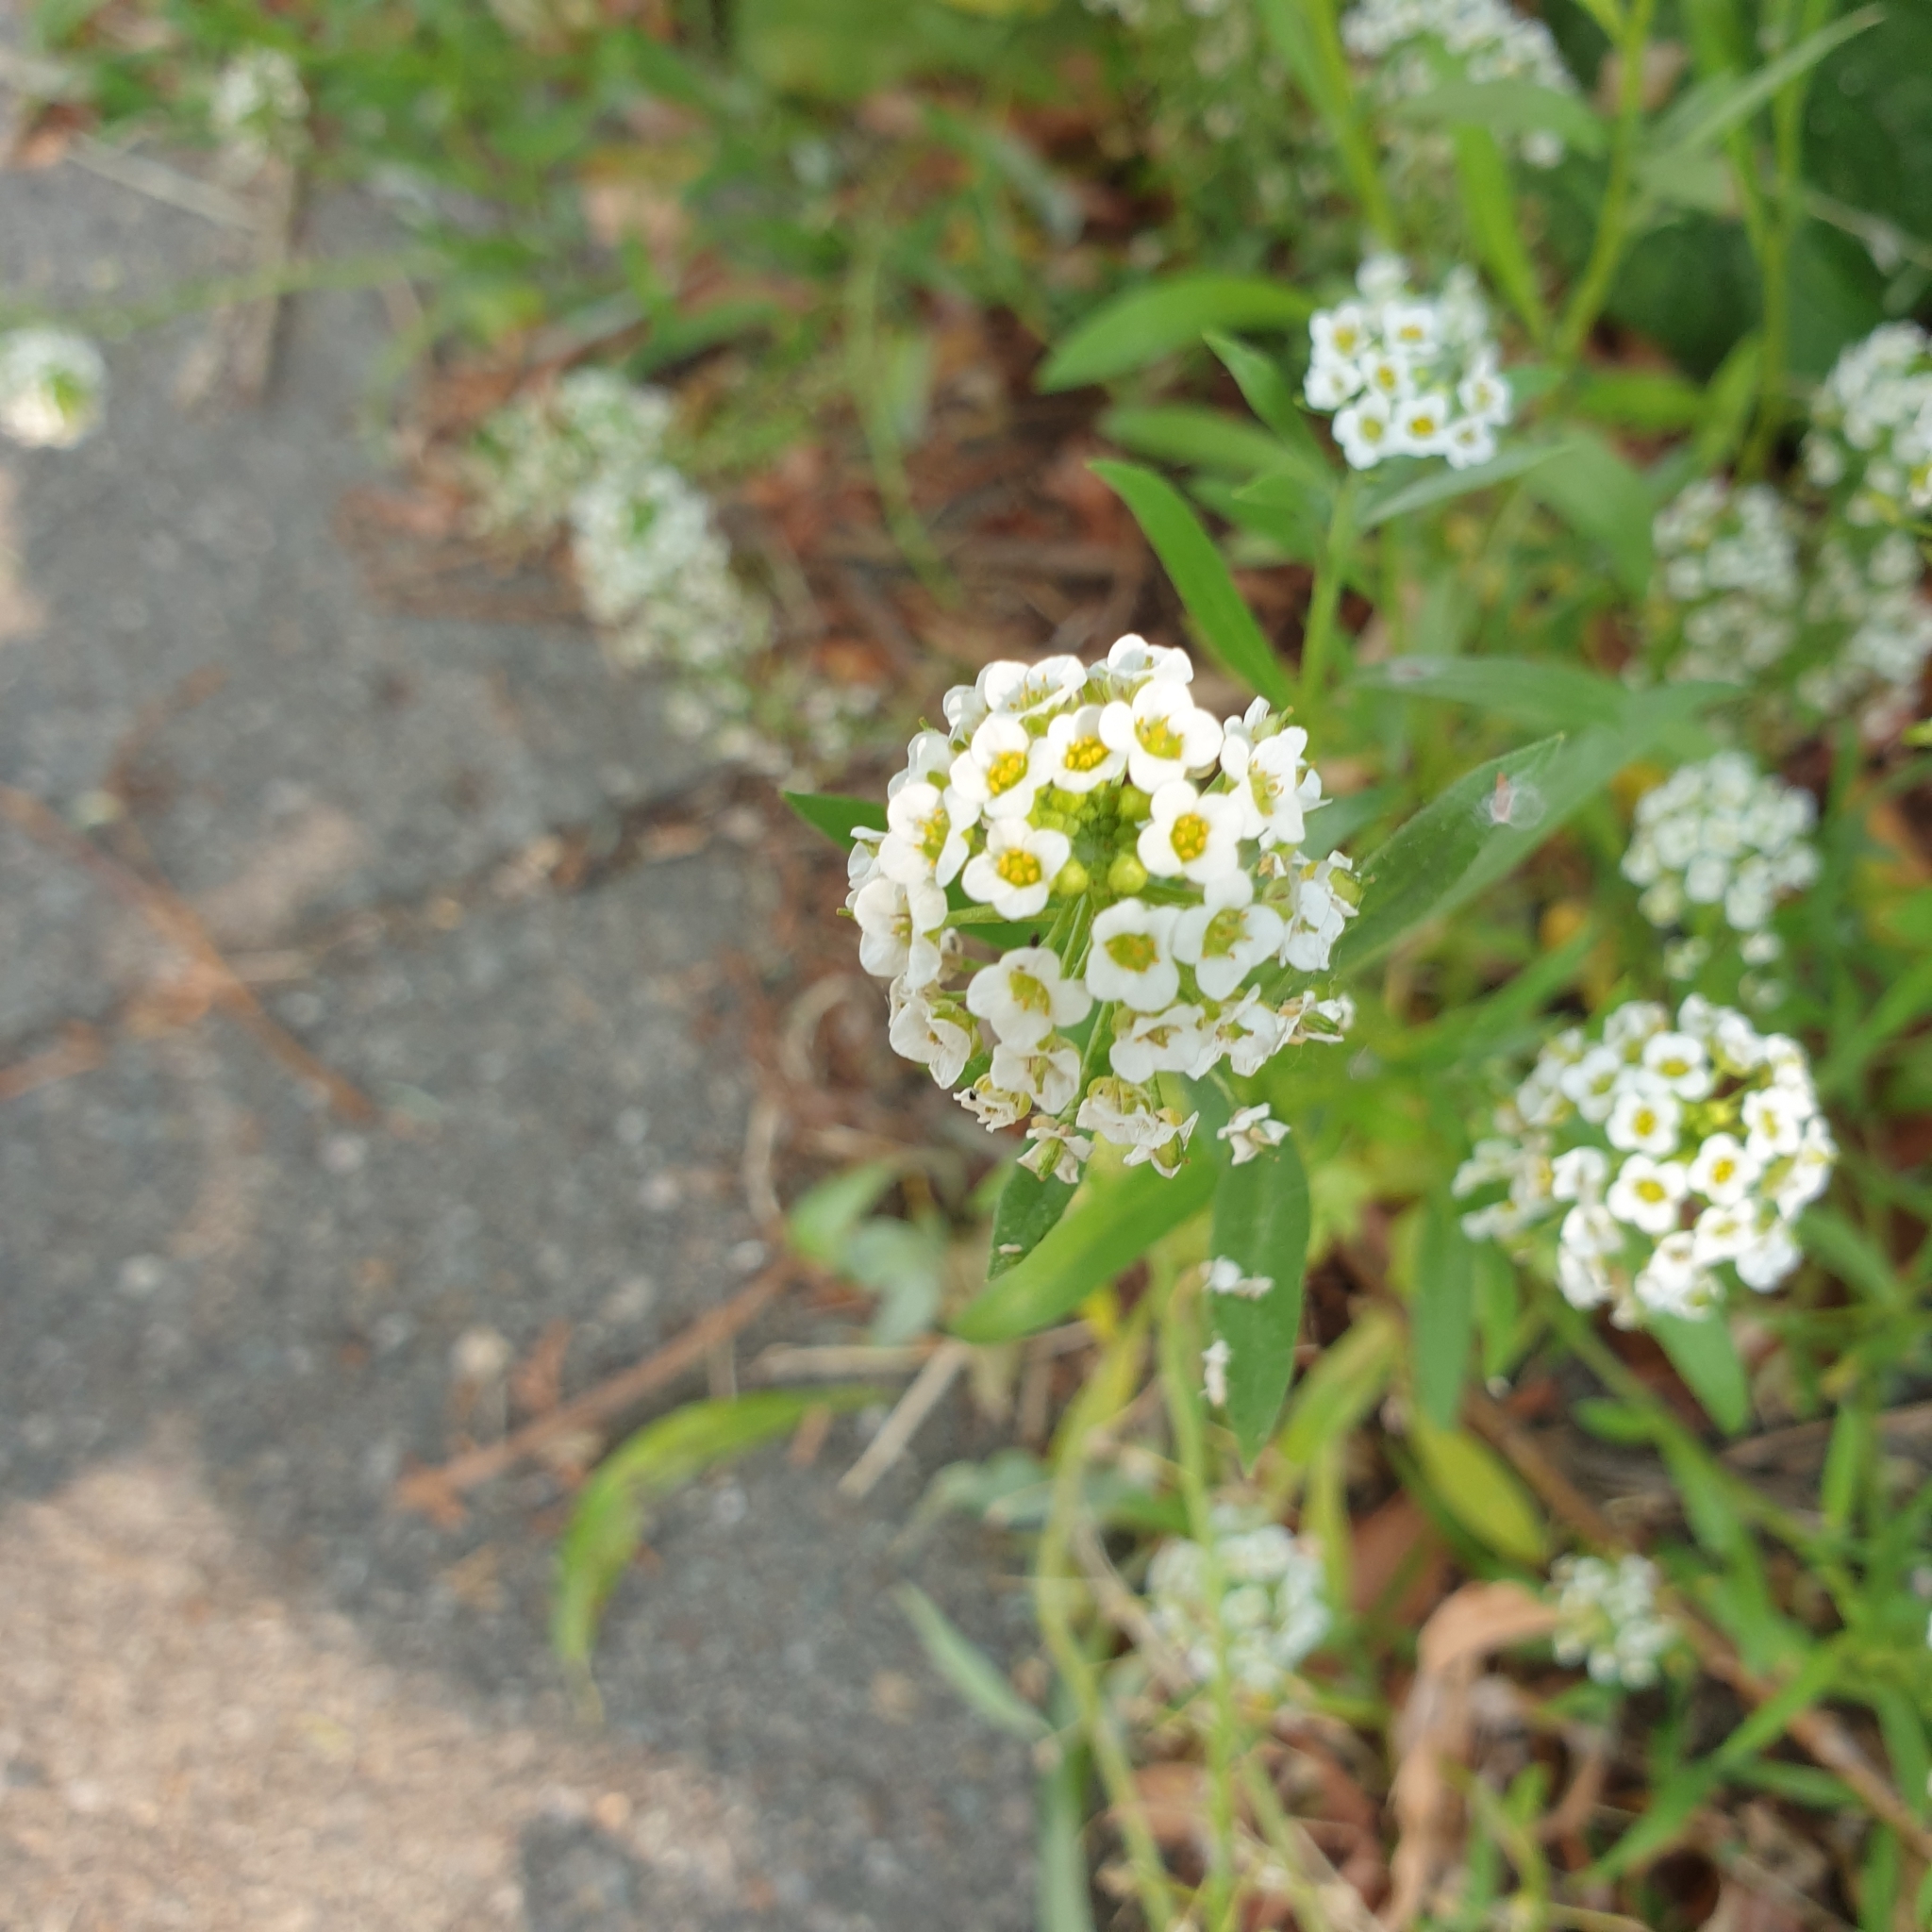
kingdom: Plantae
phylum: Tracheophyta
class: Magnoliopsida
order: Brassicales
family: Brassicaceae
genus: Lobularia
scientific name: Lobularia maritima
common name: Sweet alison
